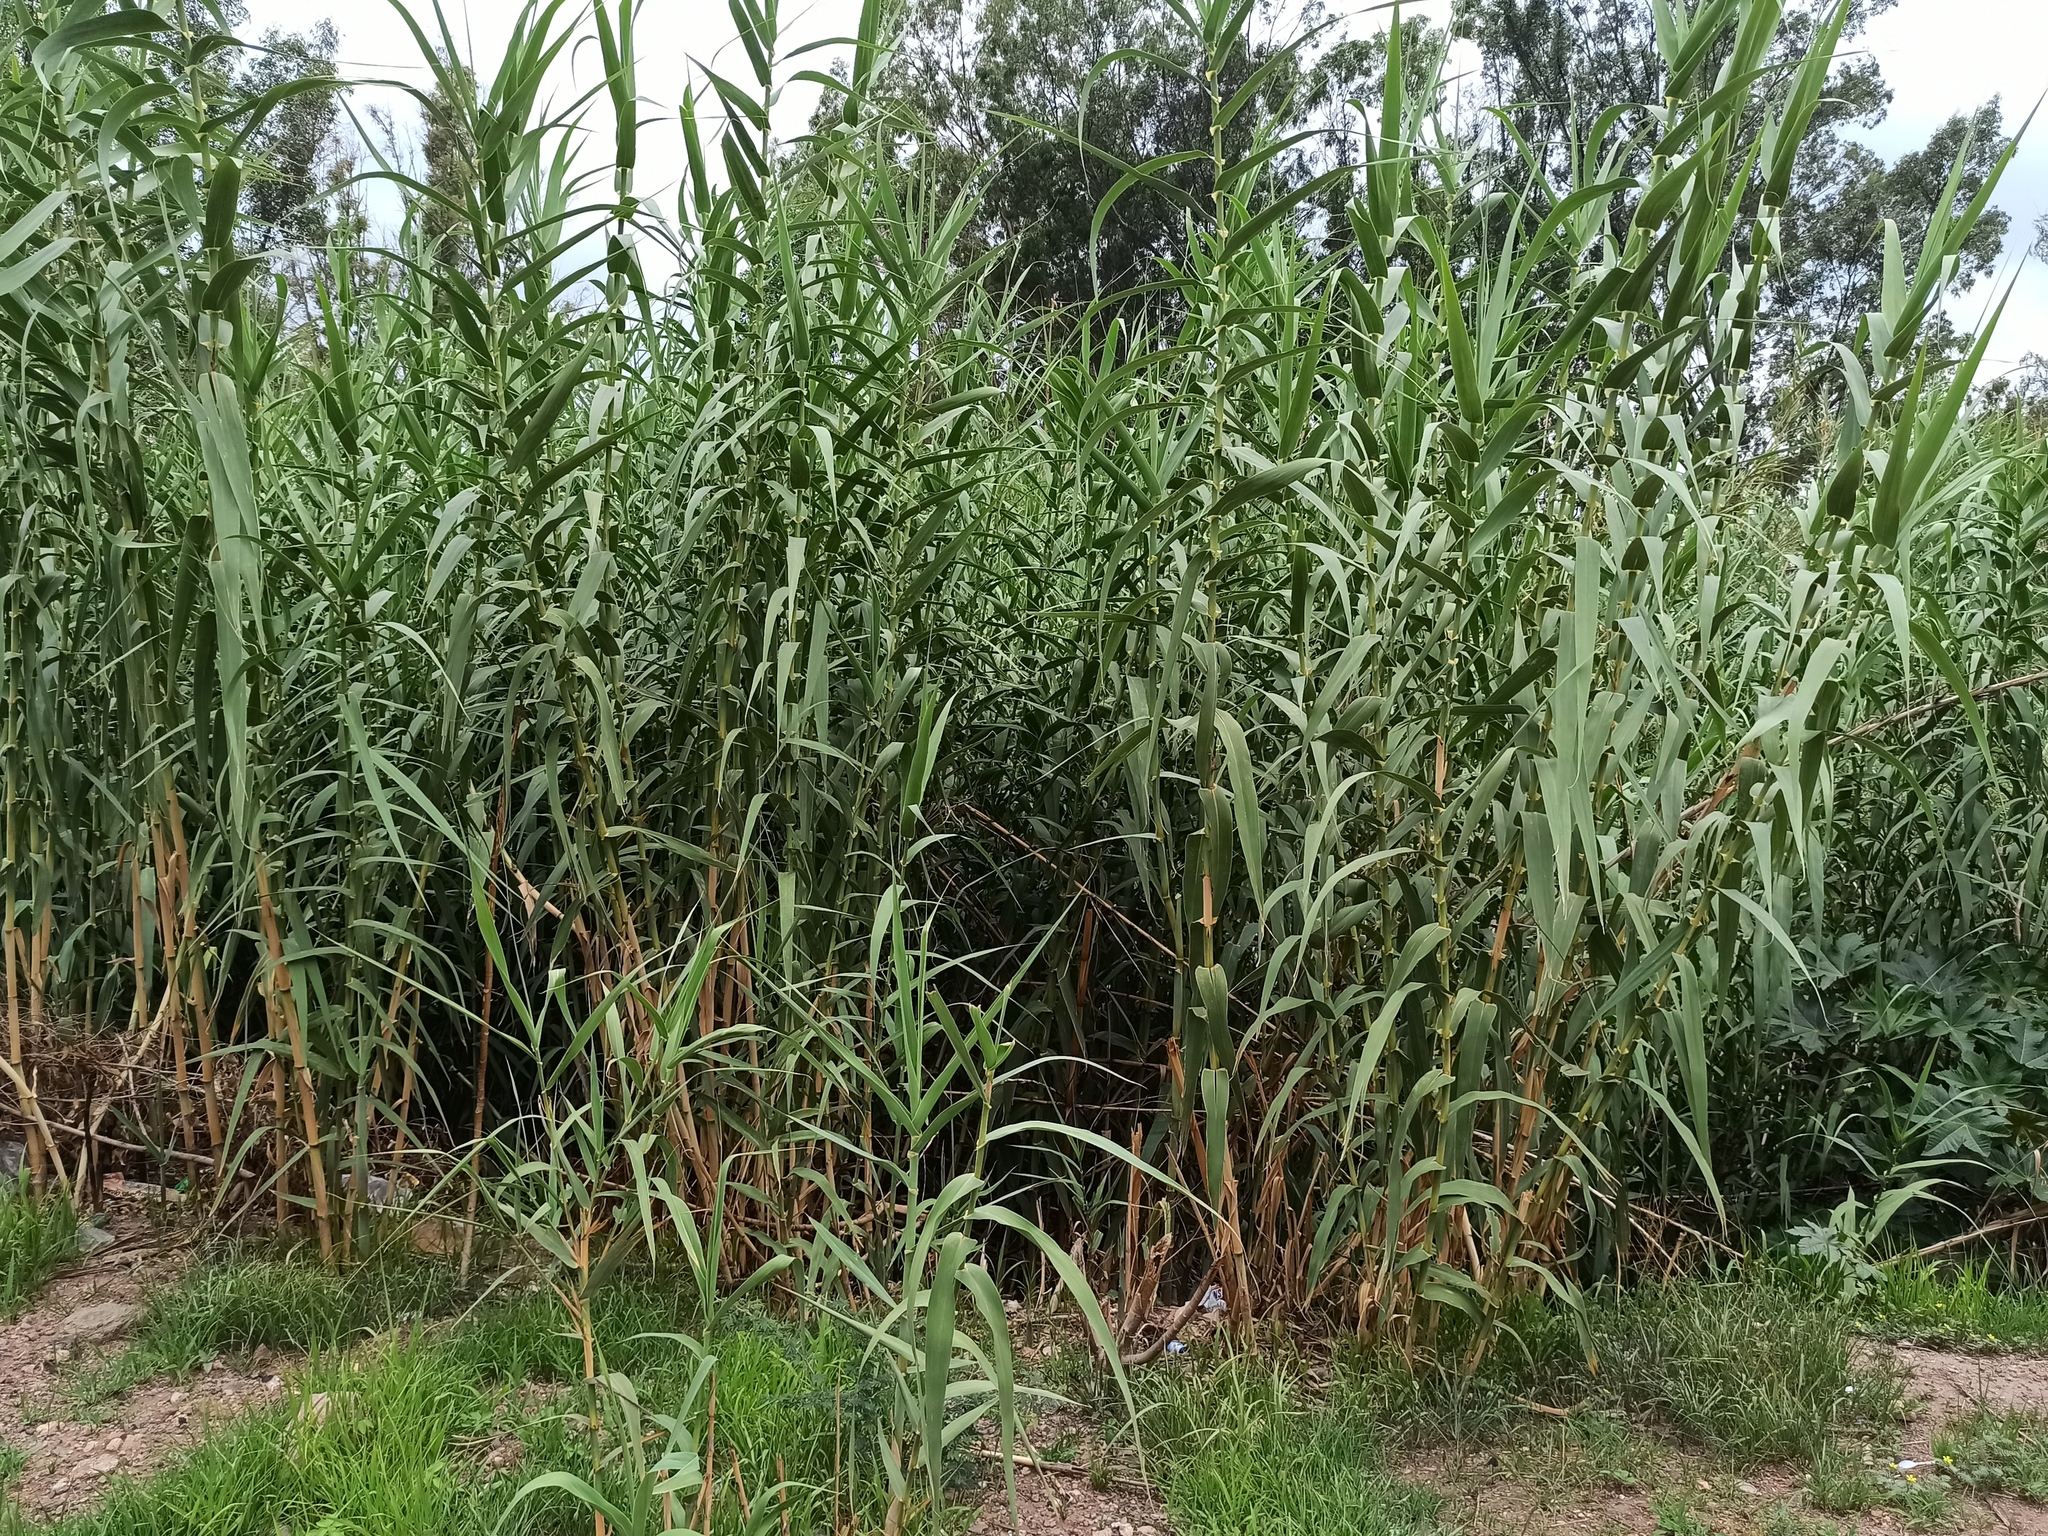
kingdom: Plantae
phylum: Tracheophyta
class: Liliopsida
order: Poales
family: Poaceae
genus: Arundo
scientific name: Arundo donax
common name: Giant reed
